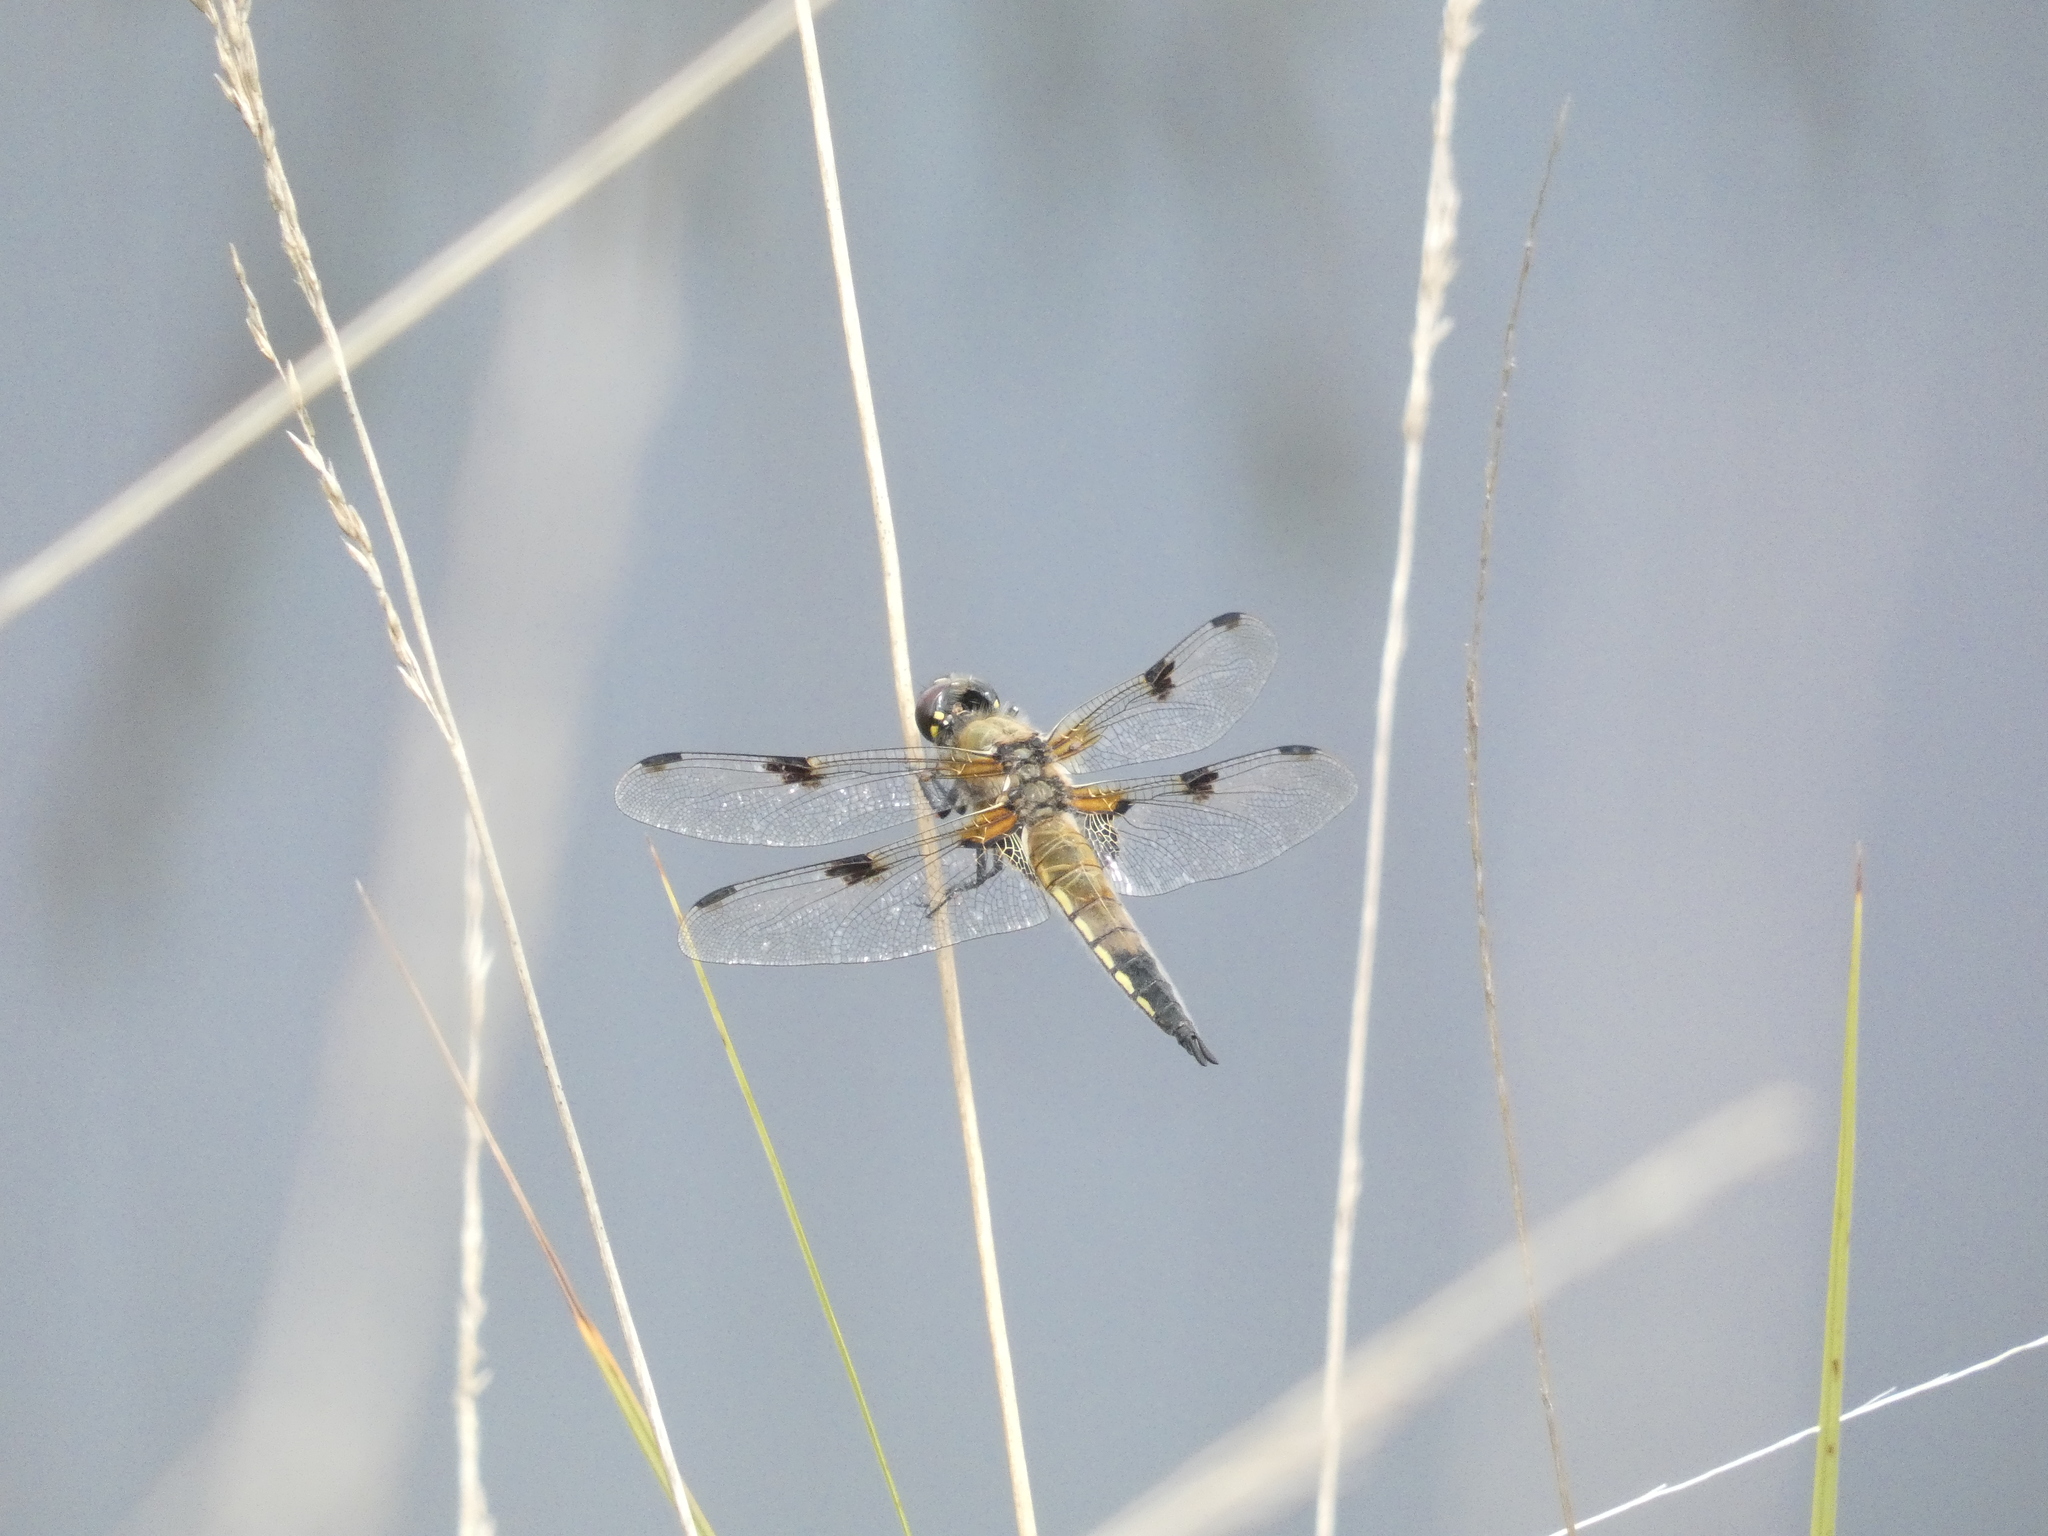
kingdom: Animalia
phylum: Arthropoda
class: Insecta
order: Odonata
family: Libellulidae
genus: Libellula
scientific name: Libellula quadrimaculata
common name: Four-spotted chaser
